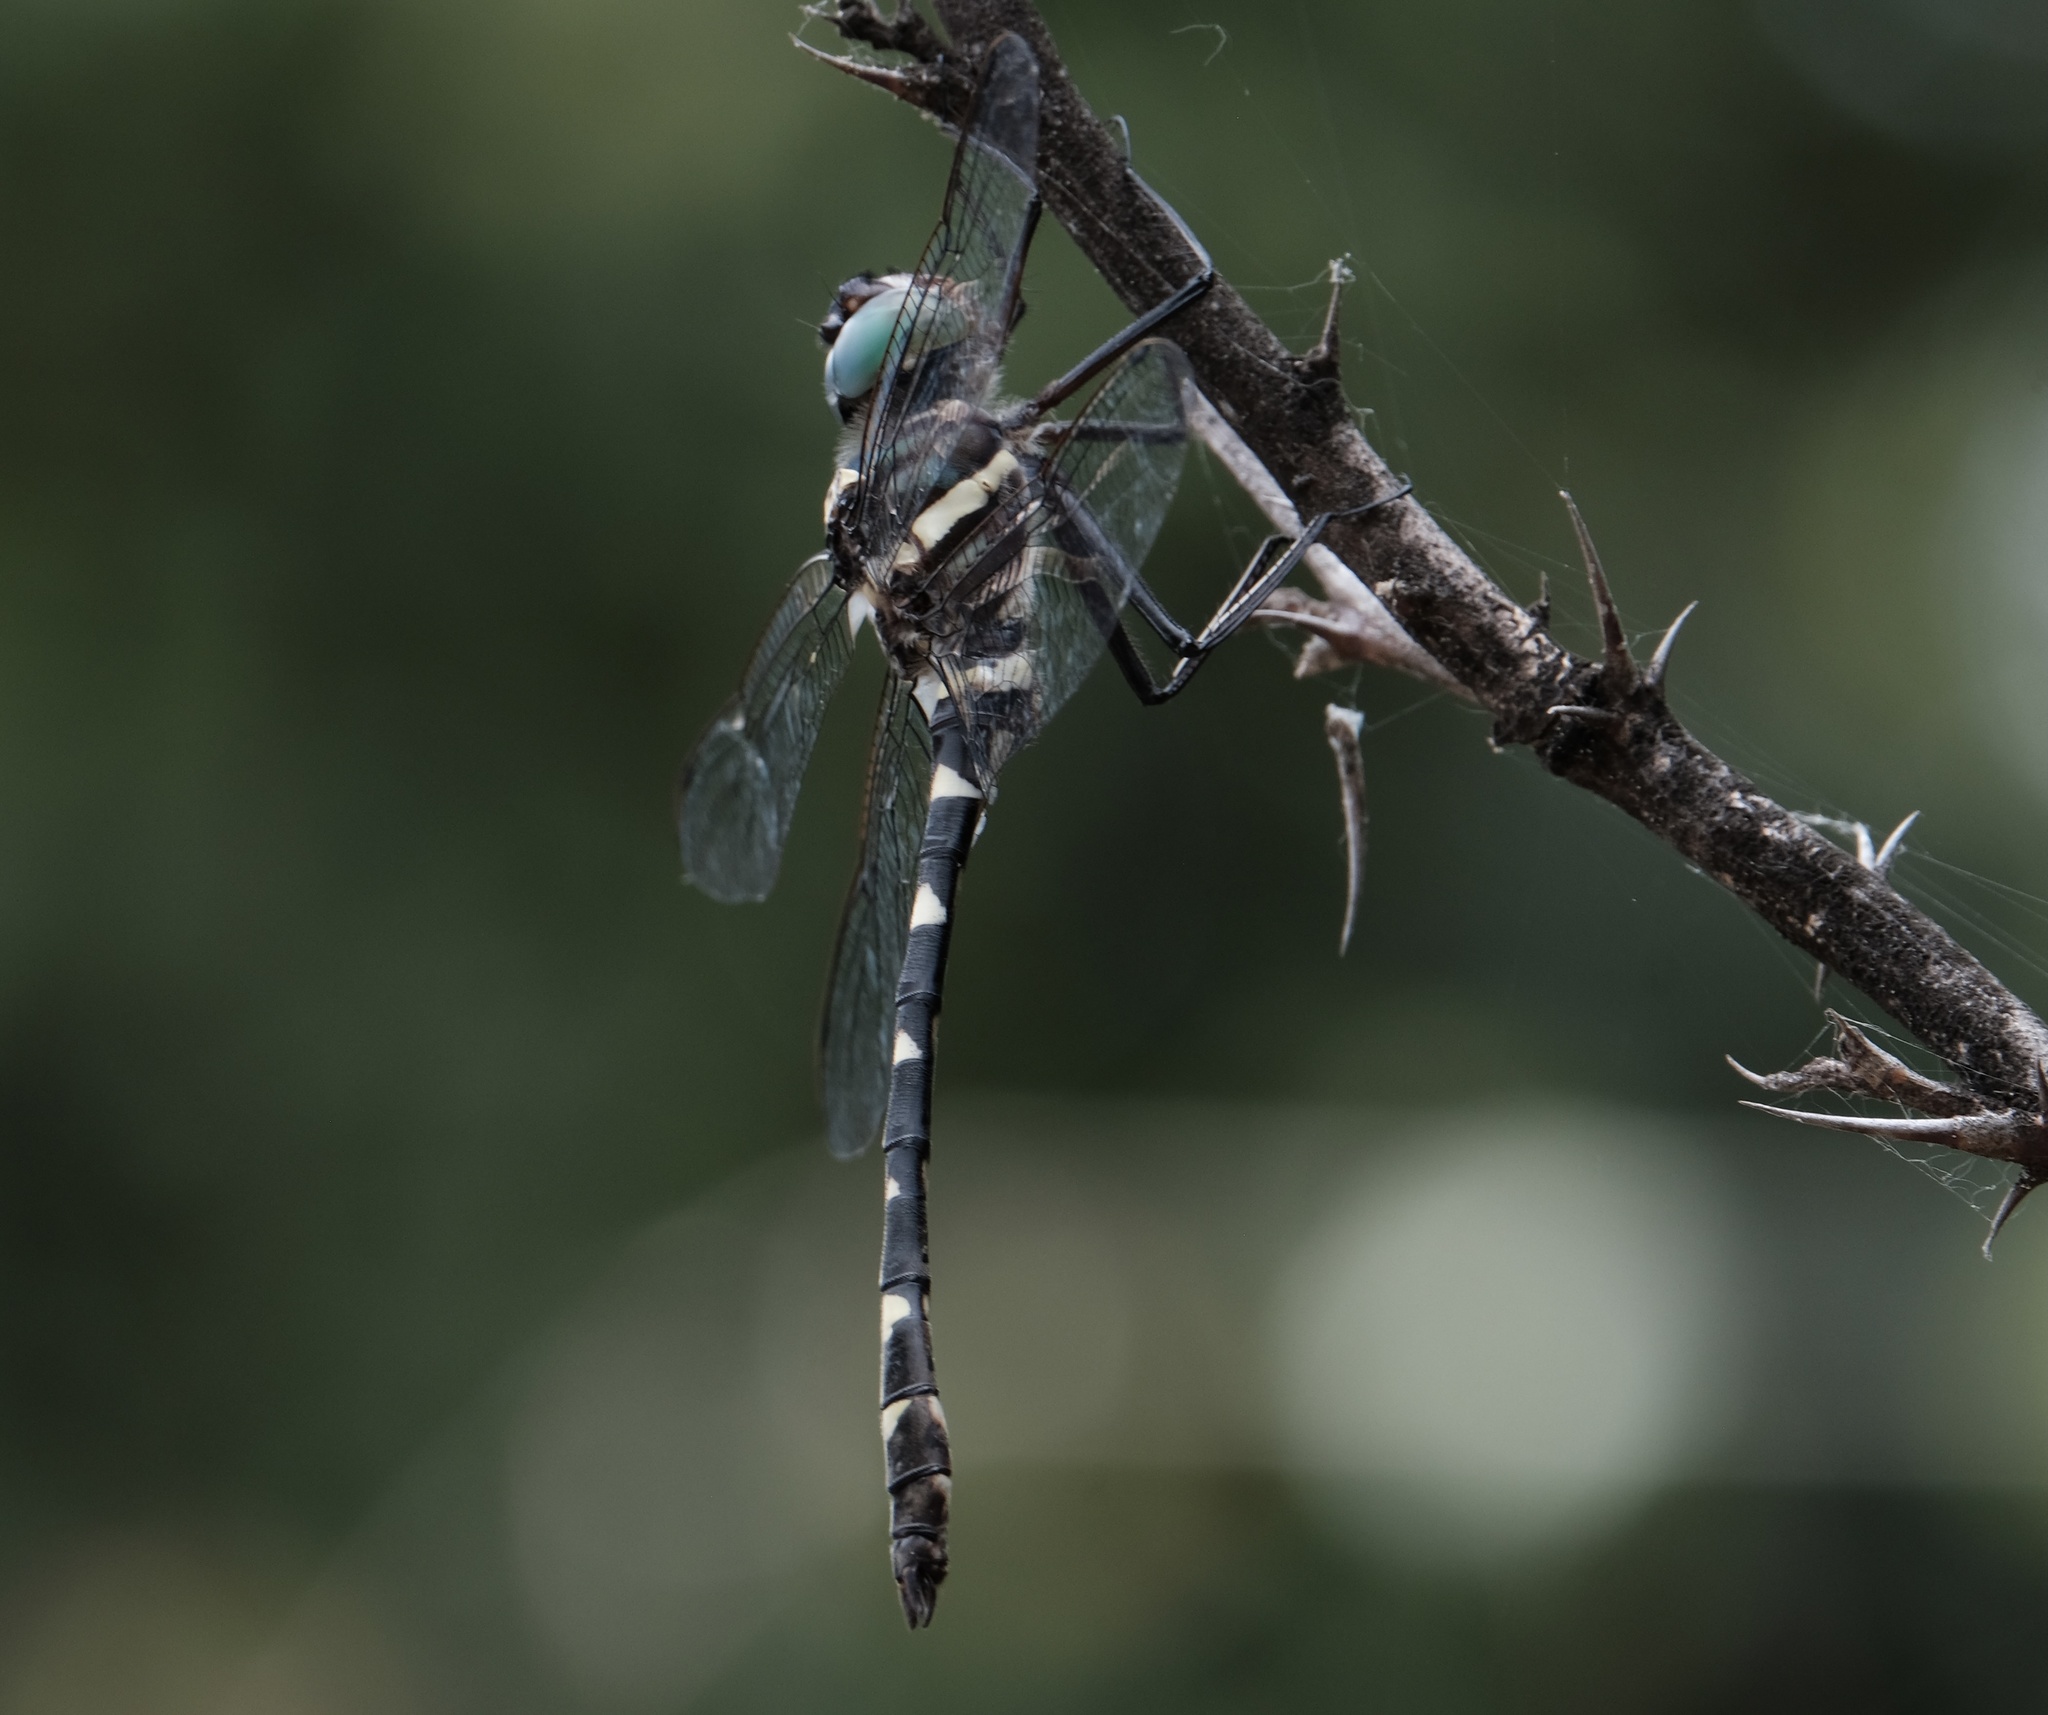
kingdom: Animalia
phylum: Arthropoda
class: Insecta
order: Odonata
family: Macromiidae
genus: Macromia
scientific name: Macromia illinoiensis
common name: Swift river cruiser
